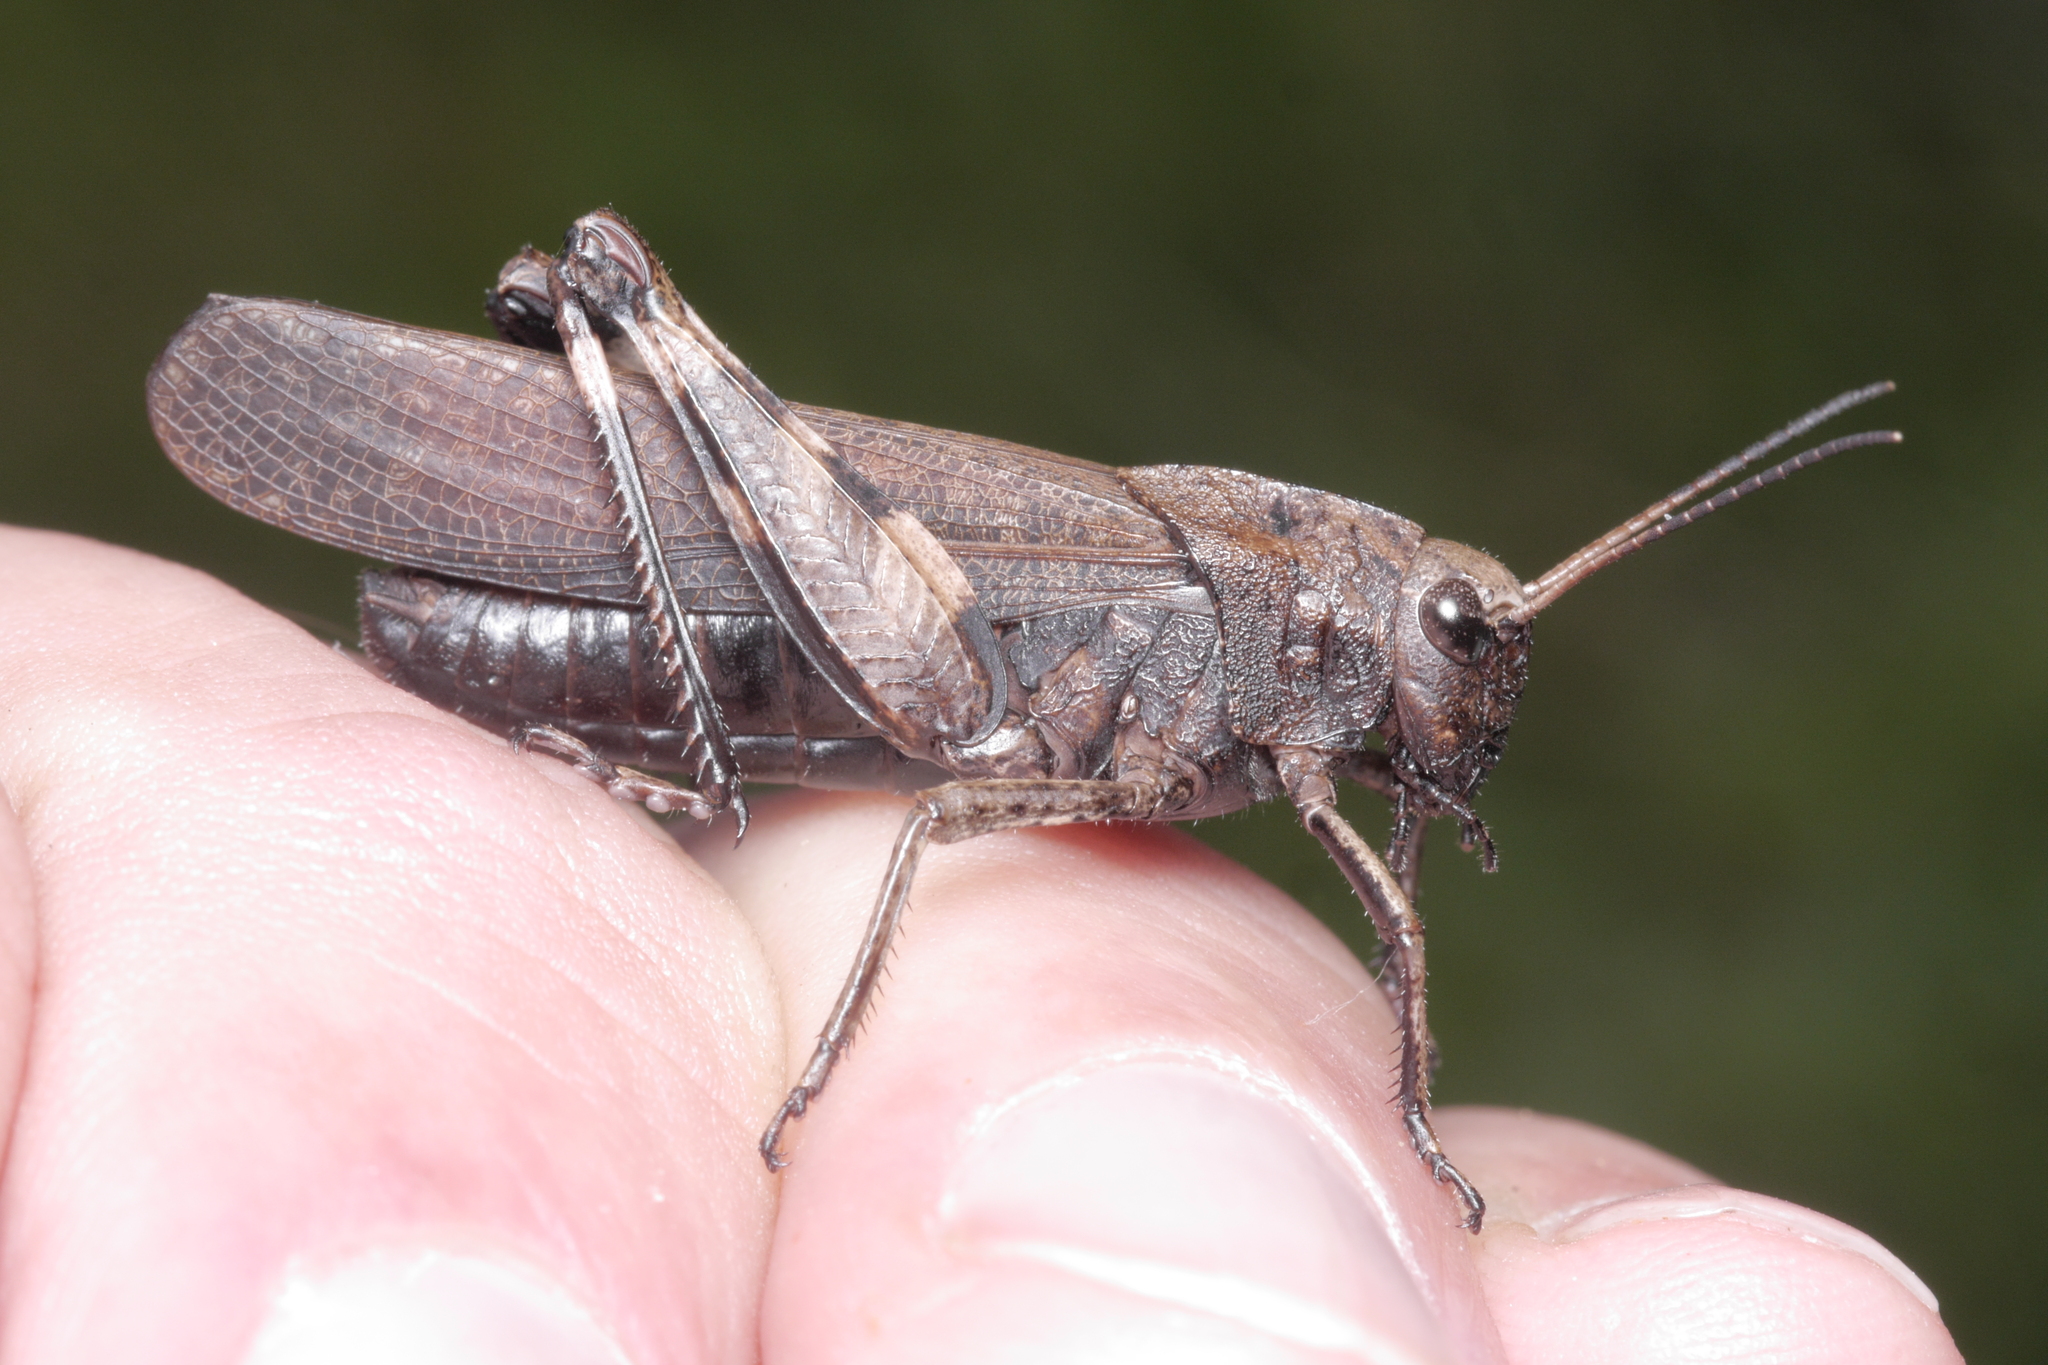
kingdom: Animalia
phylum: Arthropoda
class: Insecta
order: Orthoptera
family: Acrididae
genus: Psophus
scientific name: Psophus stridulus
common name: Rattle grasshopper
